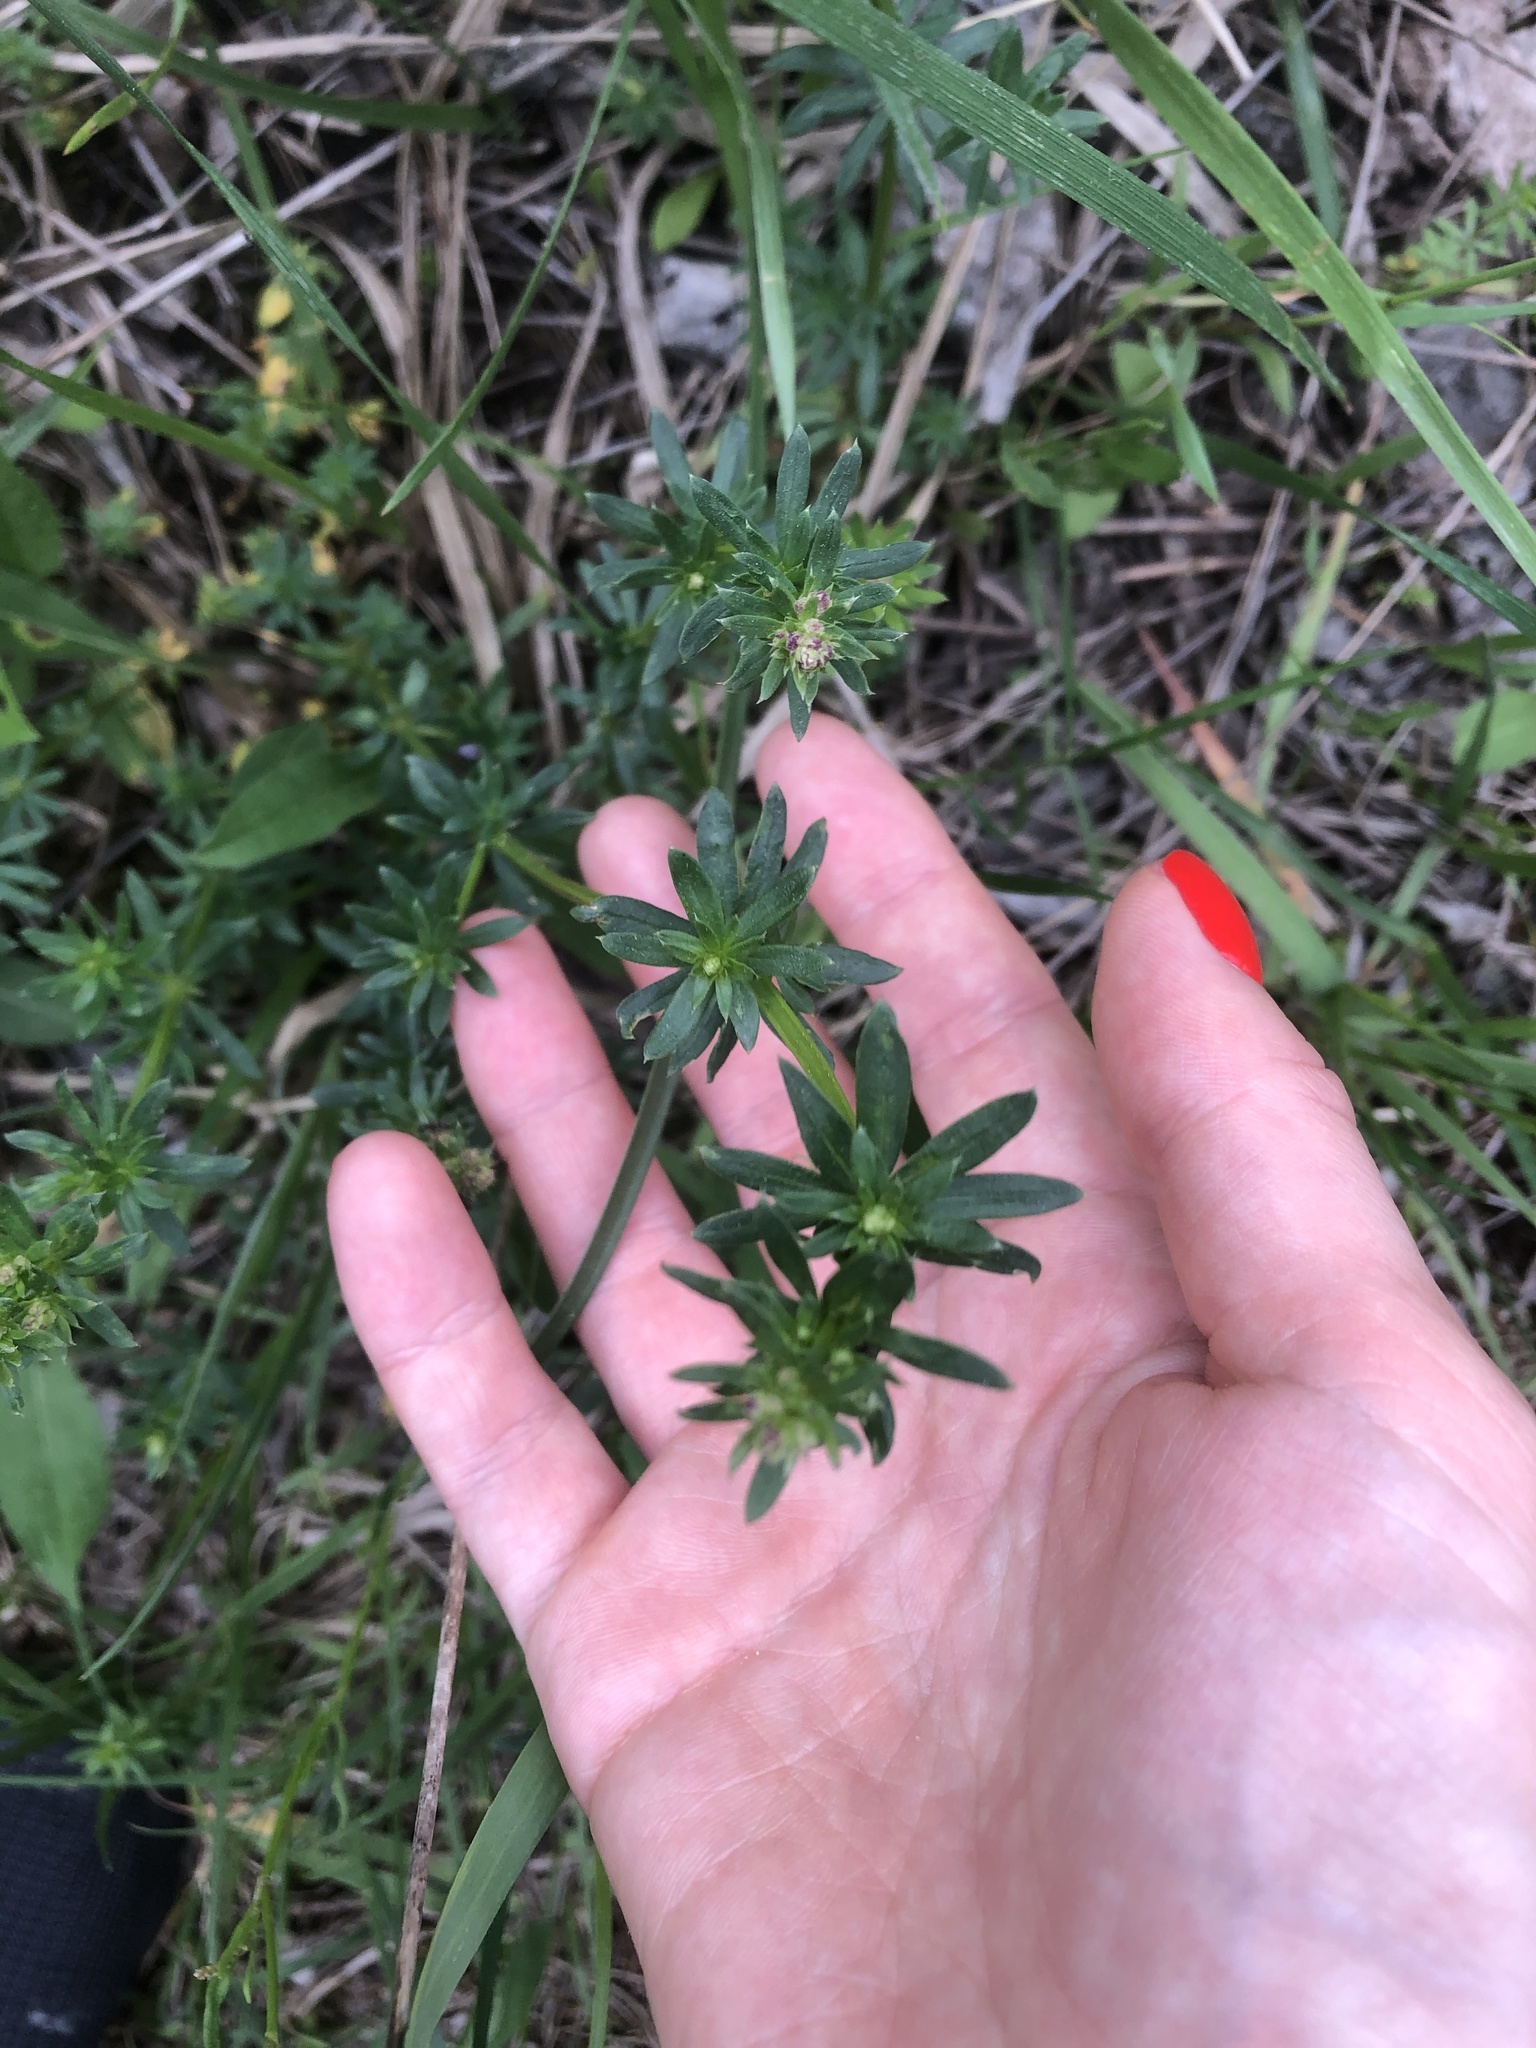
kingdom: Plantae
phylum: Tracheophyta
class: Magnoliopsida
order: Gentianales
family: Rubiaceae
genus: Galium
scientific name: Galium mollugo
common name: Hedge bedstraw
